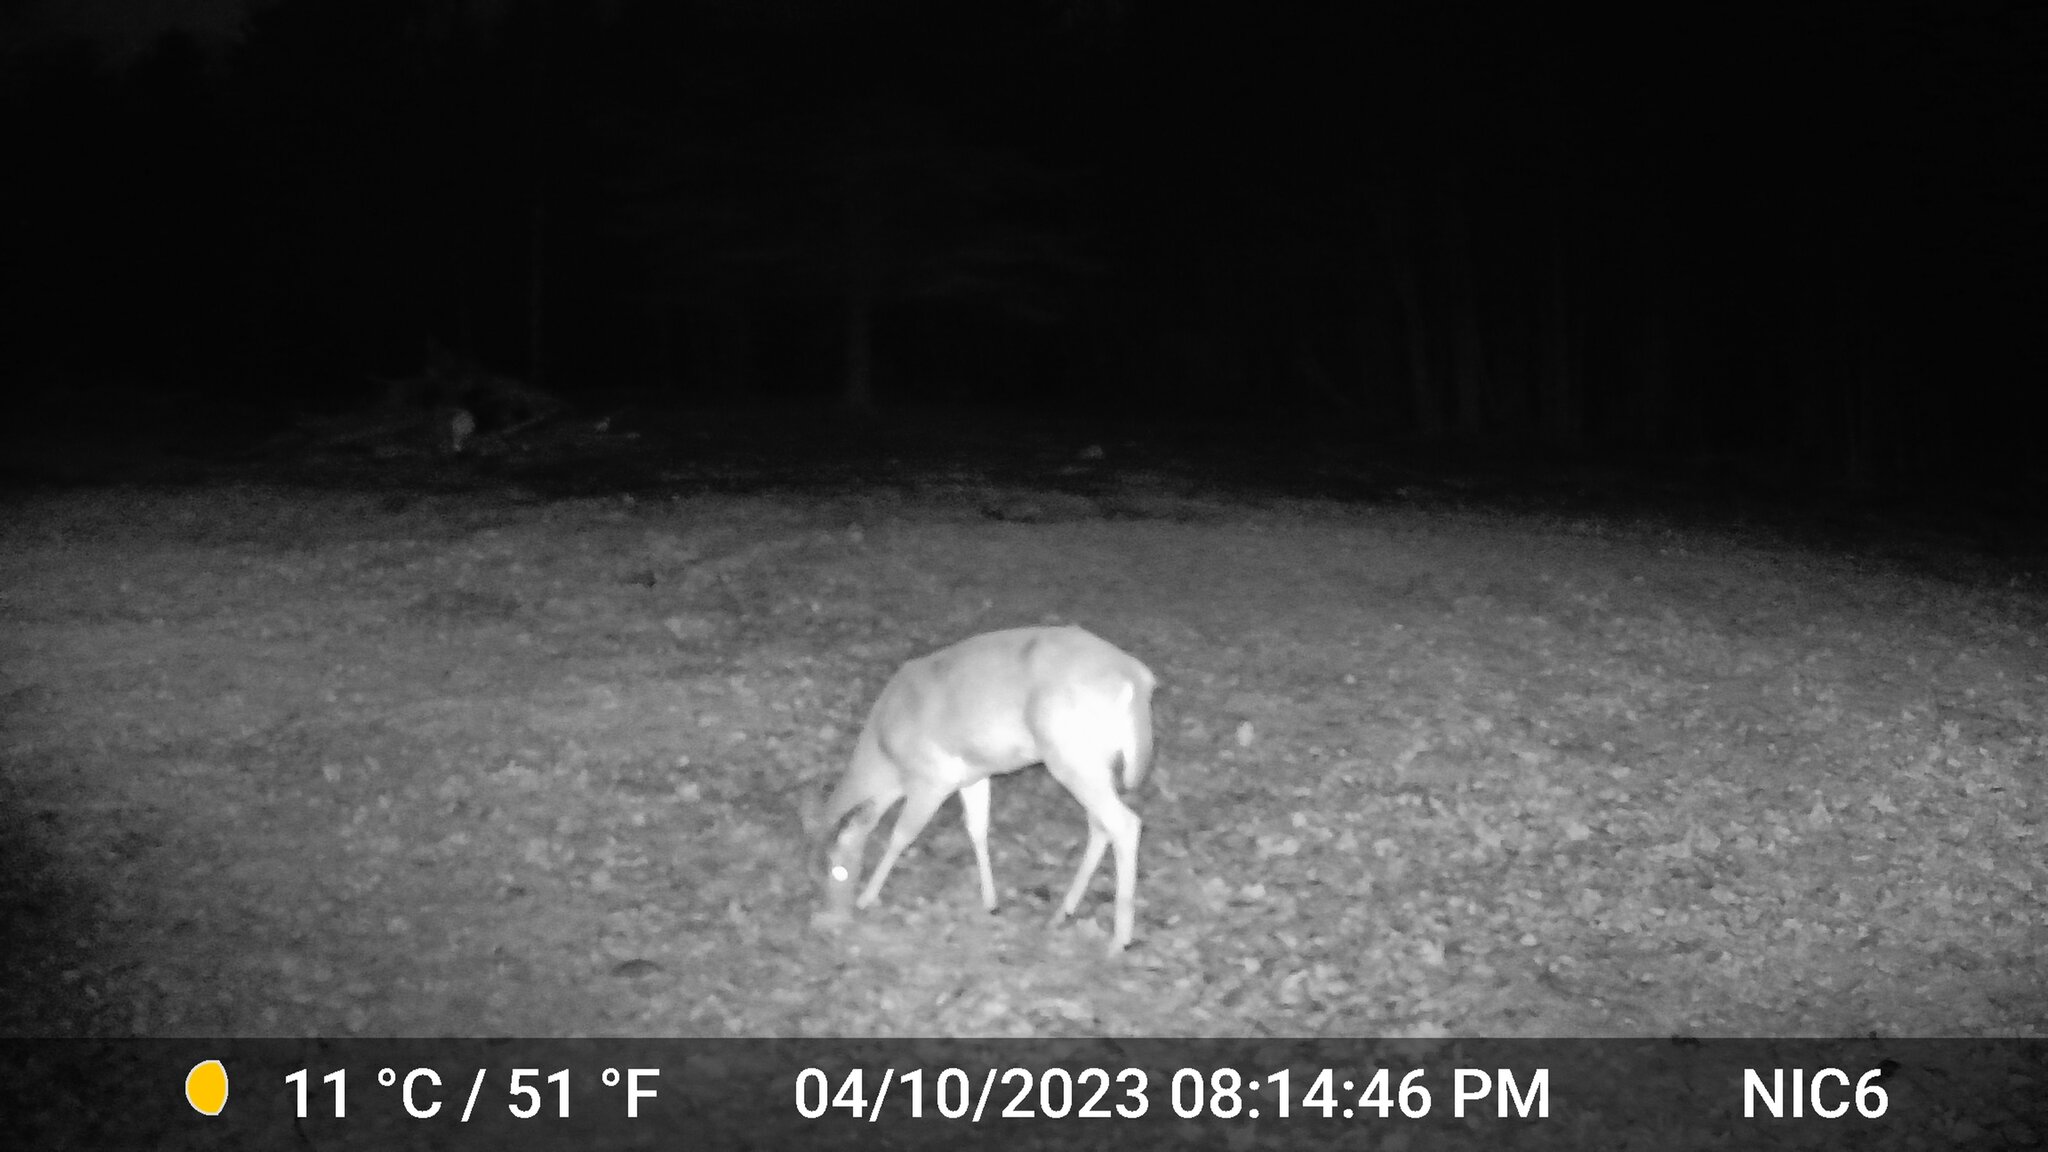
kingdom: Animalia
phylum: Chordata
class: Mammalia
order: Artiodactyla
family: Cervidae
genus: Odocoileus
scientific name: Odocoileus virginianus
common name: White-tailed deer
